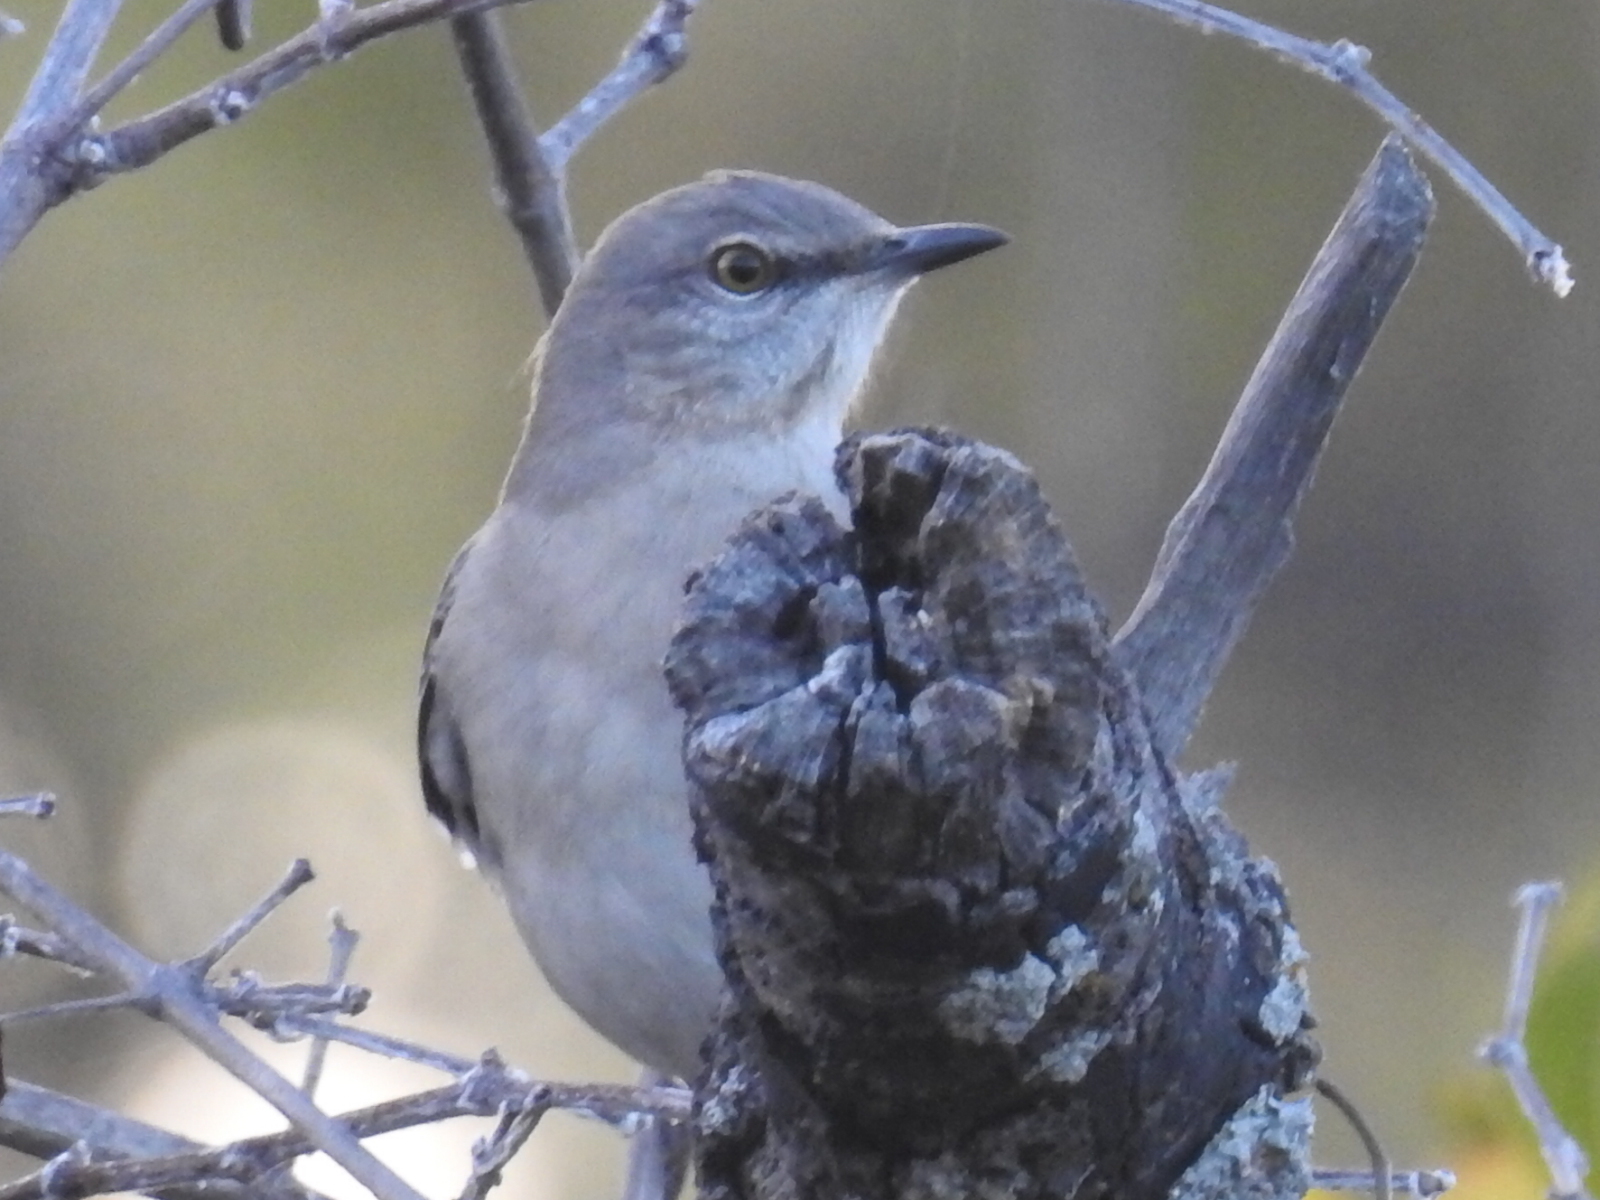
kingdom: Animalia
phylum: Chordata
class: Aves
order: Passeriformes
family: Mimidae
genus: Mimus
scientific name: Mimus polyglottos
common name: Northern mockingbird
